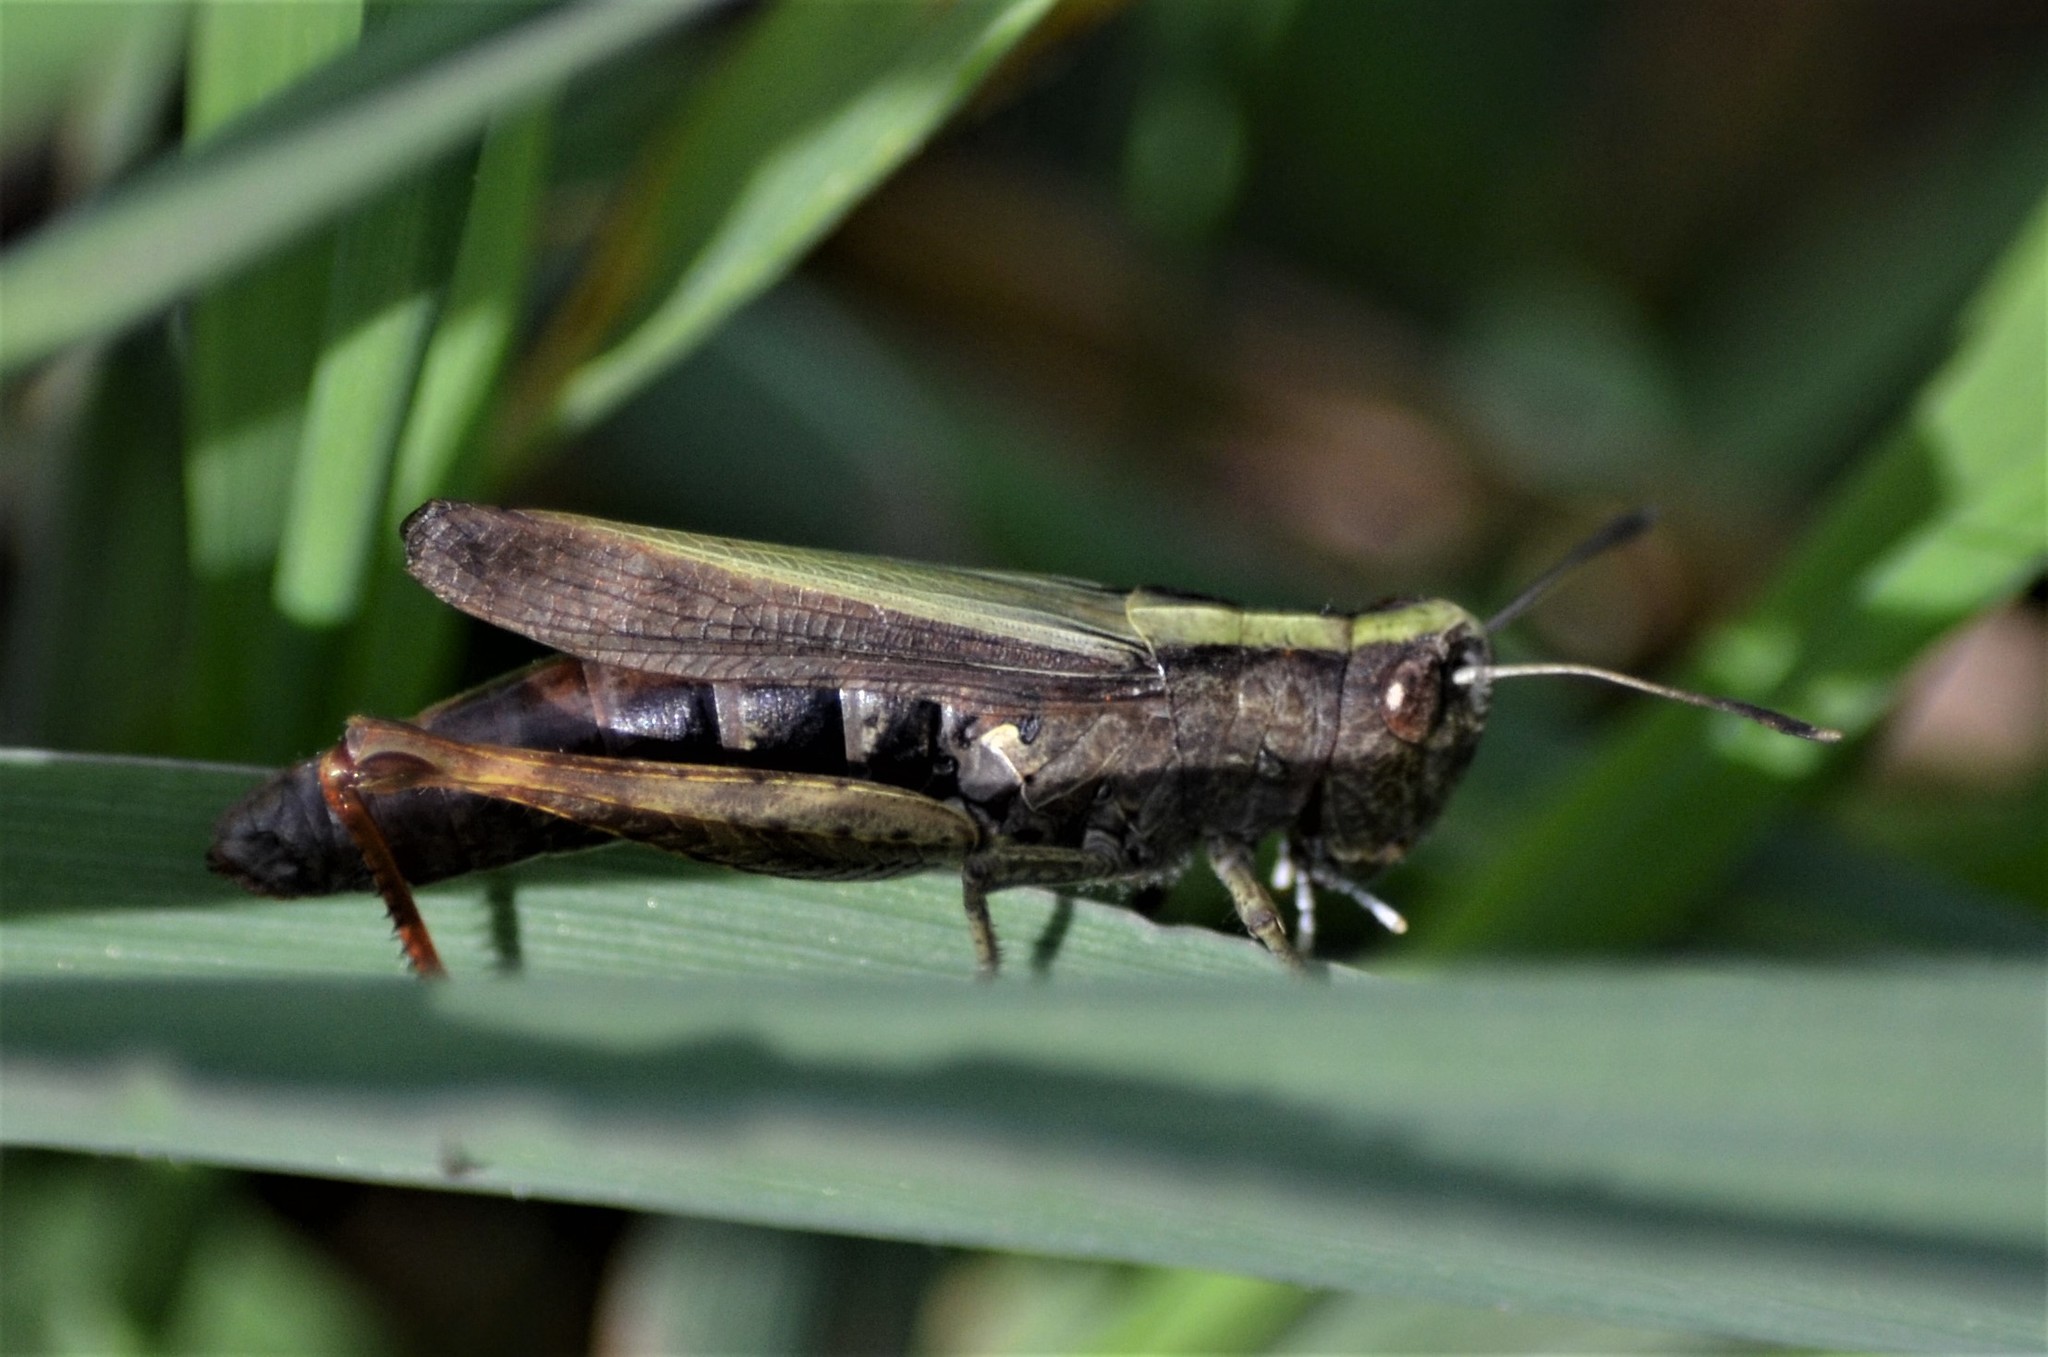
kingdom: Animalia
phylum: Arthropoda
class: Insecta
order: Orthoptera
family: Acrididae
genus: Gomphocerippus
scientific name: Gomphocerippus rufus
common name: Rufous grasshopper
